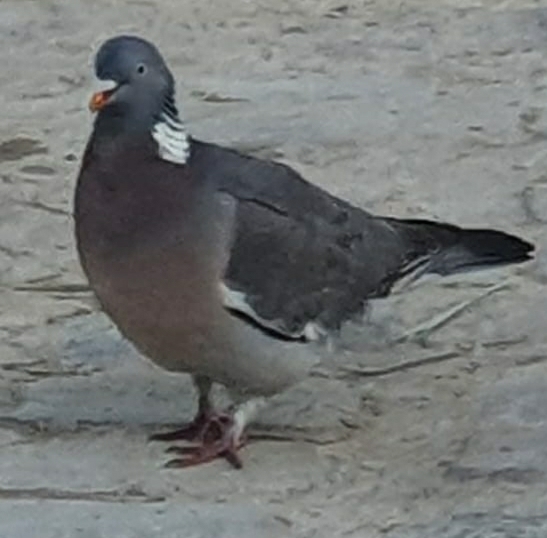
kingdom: Animalia
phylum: Chordata
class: Aves
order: Columbiformes
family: Columbidae
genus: Columba
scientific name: Columba palumbus
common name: Common wood pigeon
